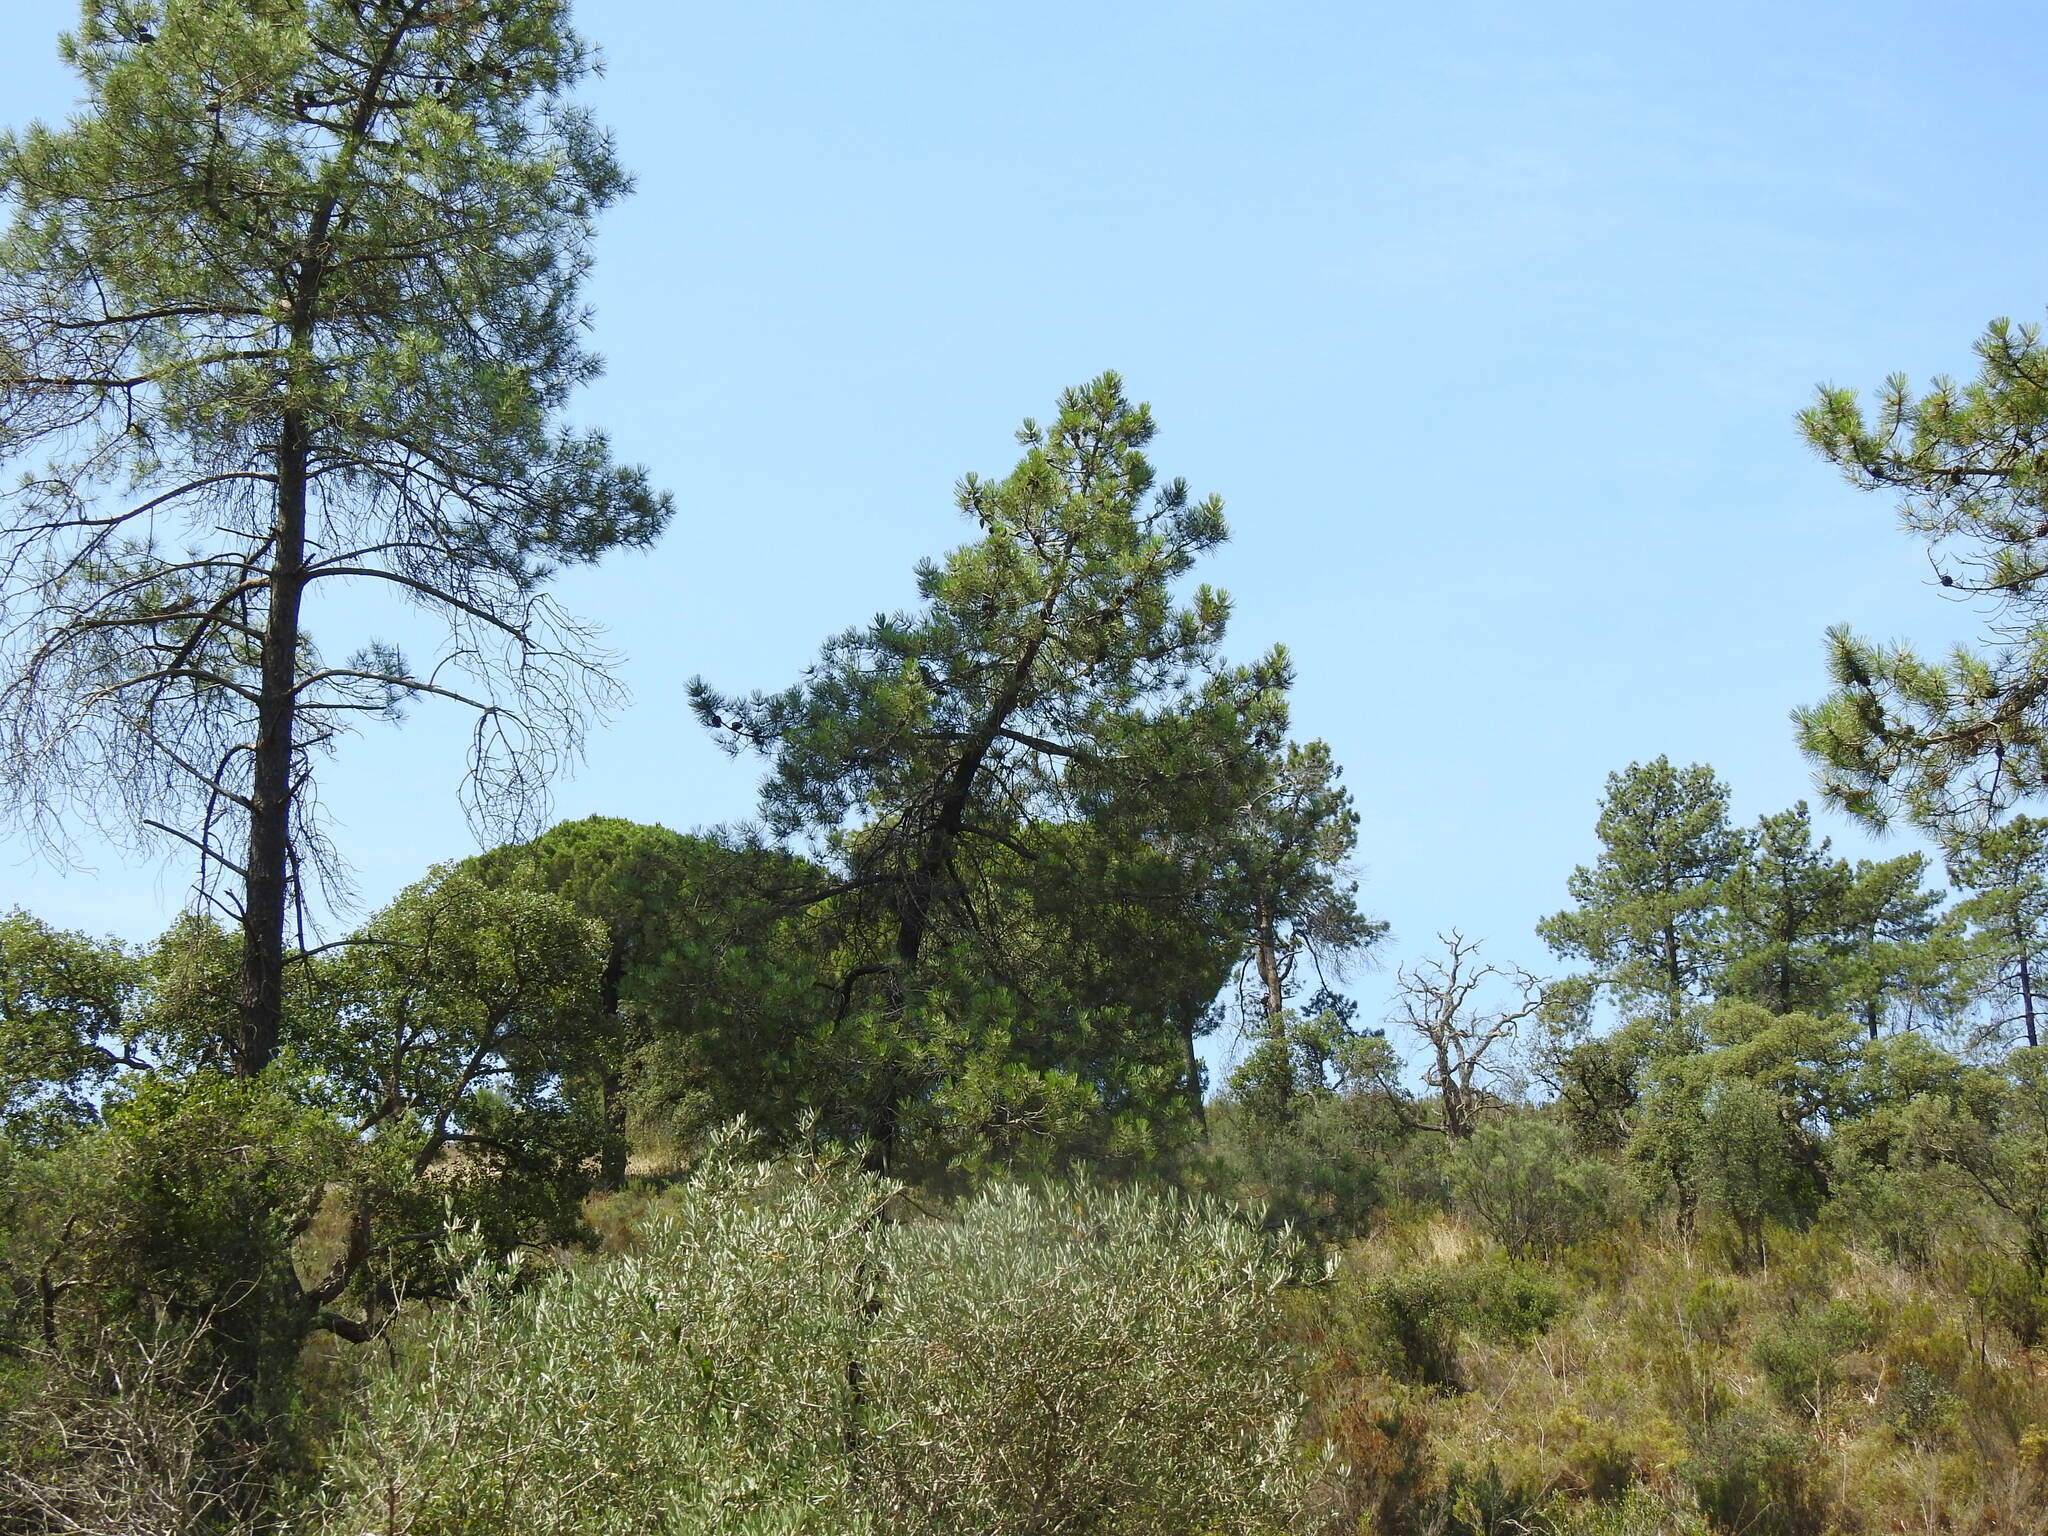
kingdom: Plantae
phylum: Tracheophyta
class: Pinopsida
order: Pinales
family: Pinaceae
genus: Pinus
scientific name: Pinus pinaster
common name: Maritime pine
